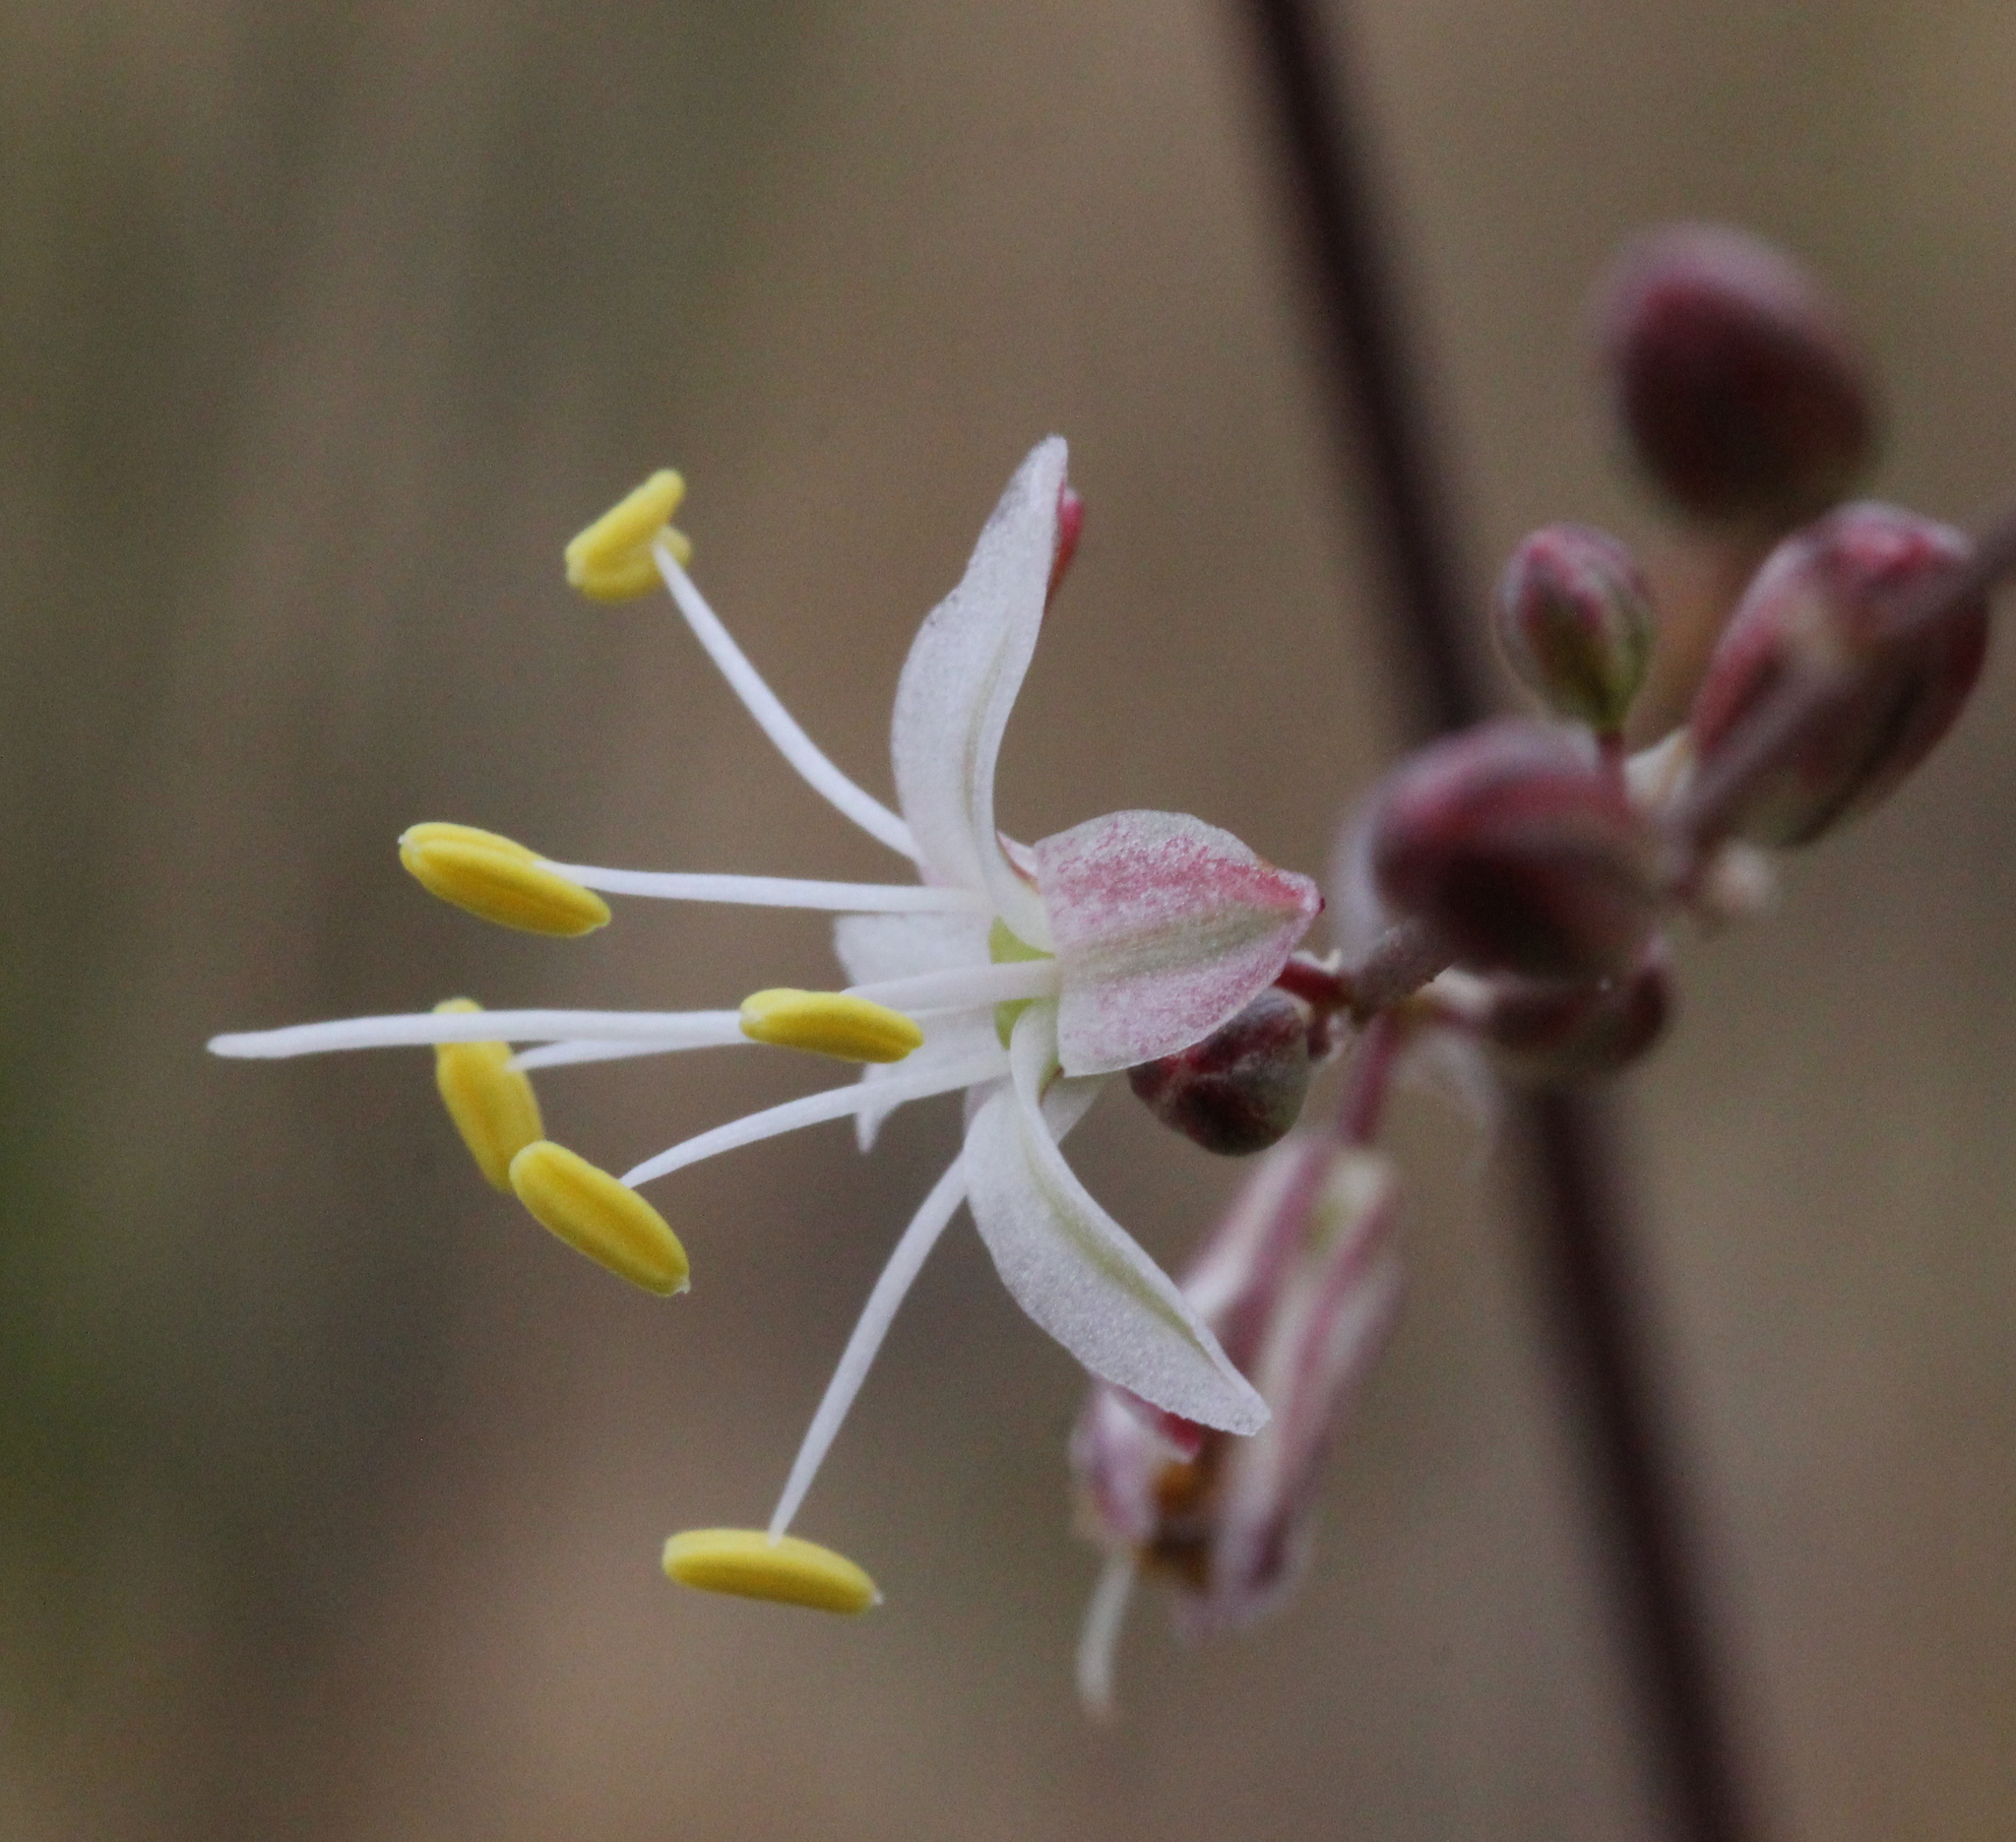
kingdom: Plantae
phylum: Tracheophyta
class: Liliopsida
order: Asparagales
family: Asparagaceae
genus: Hooveria
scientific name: Hooveria parviflora
